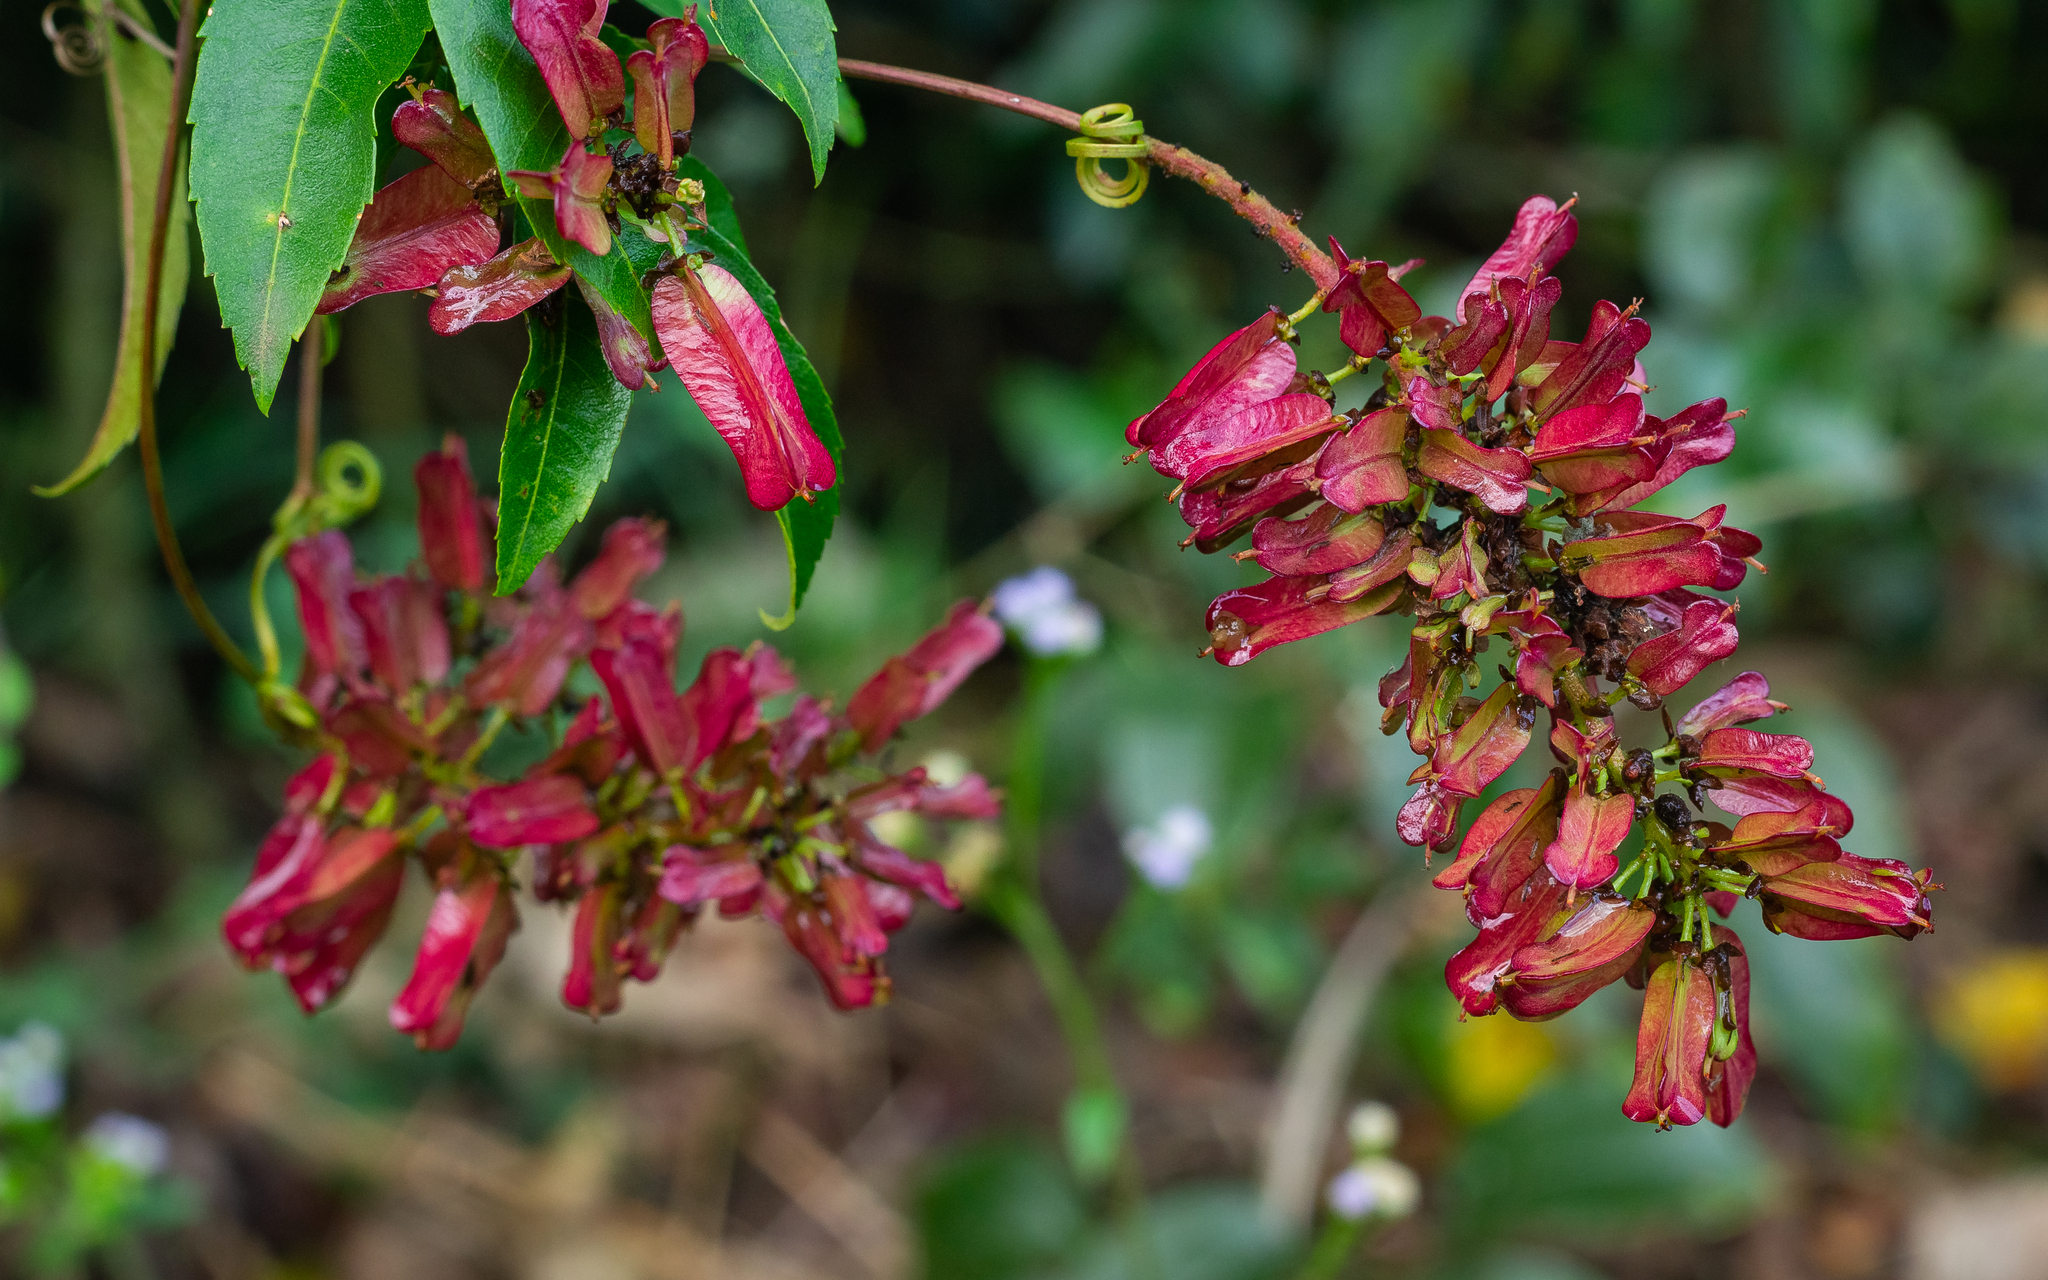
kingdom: Plantae
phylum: Tracheophyta
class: Magnoliopsida
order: Sapindales
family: Sapindaceae
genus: Serjania
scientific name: Serjania laruotteana
